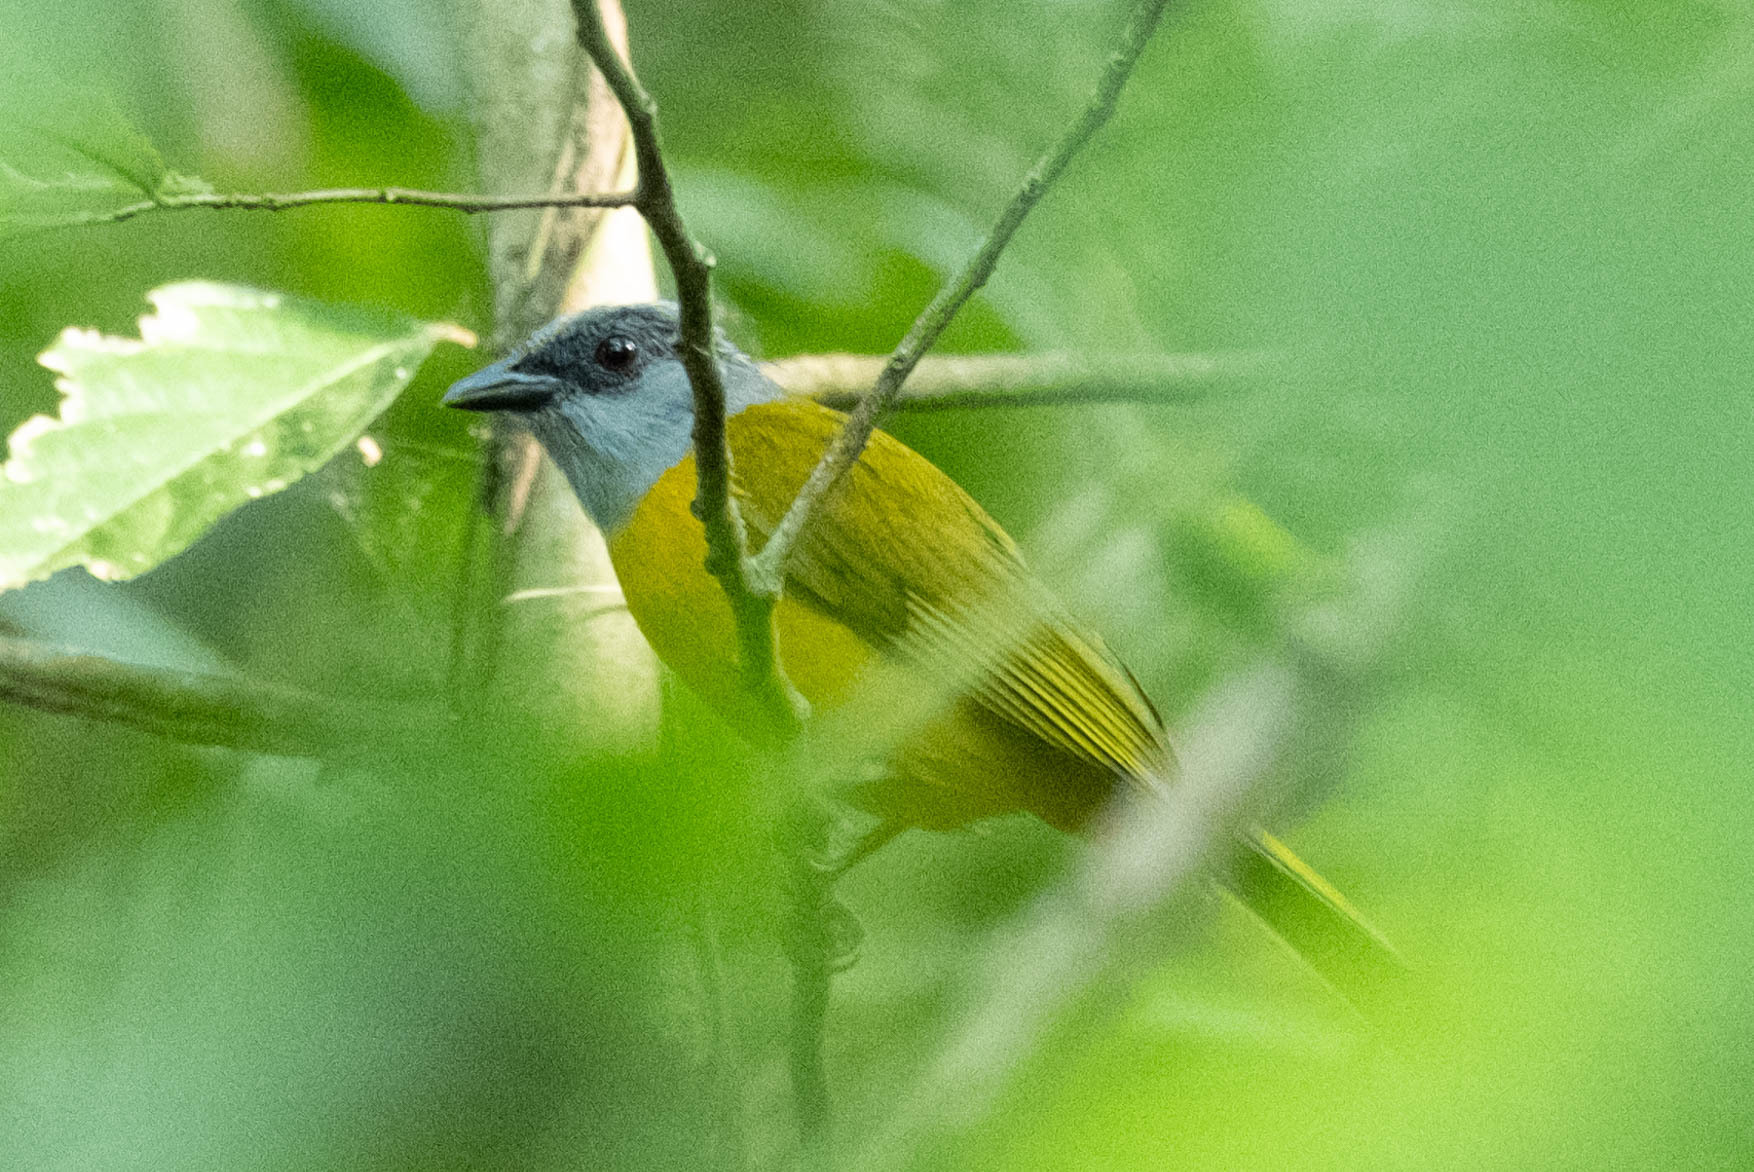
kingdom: Animalia
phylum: Chordata
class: Aves
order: Passeriformes
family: Thraupidae
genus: Eucometis
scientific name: Eucometis penicillata
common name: Grey-headed tanager
